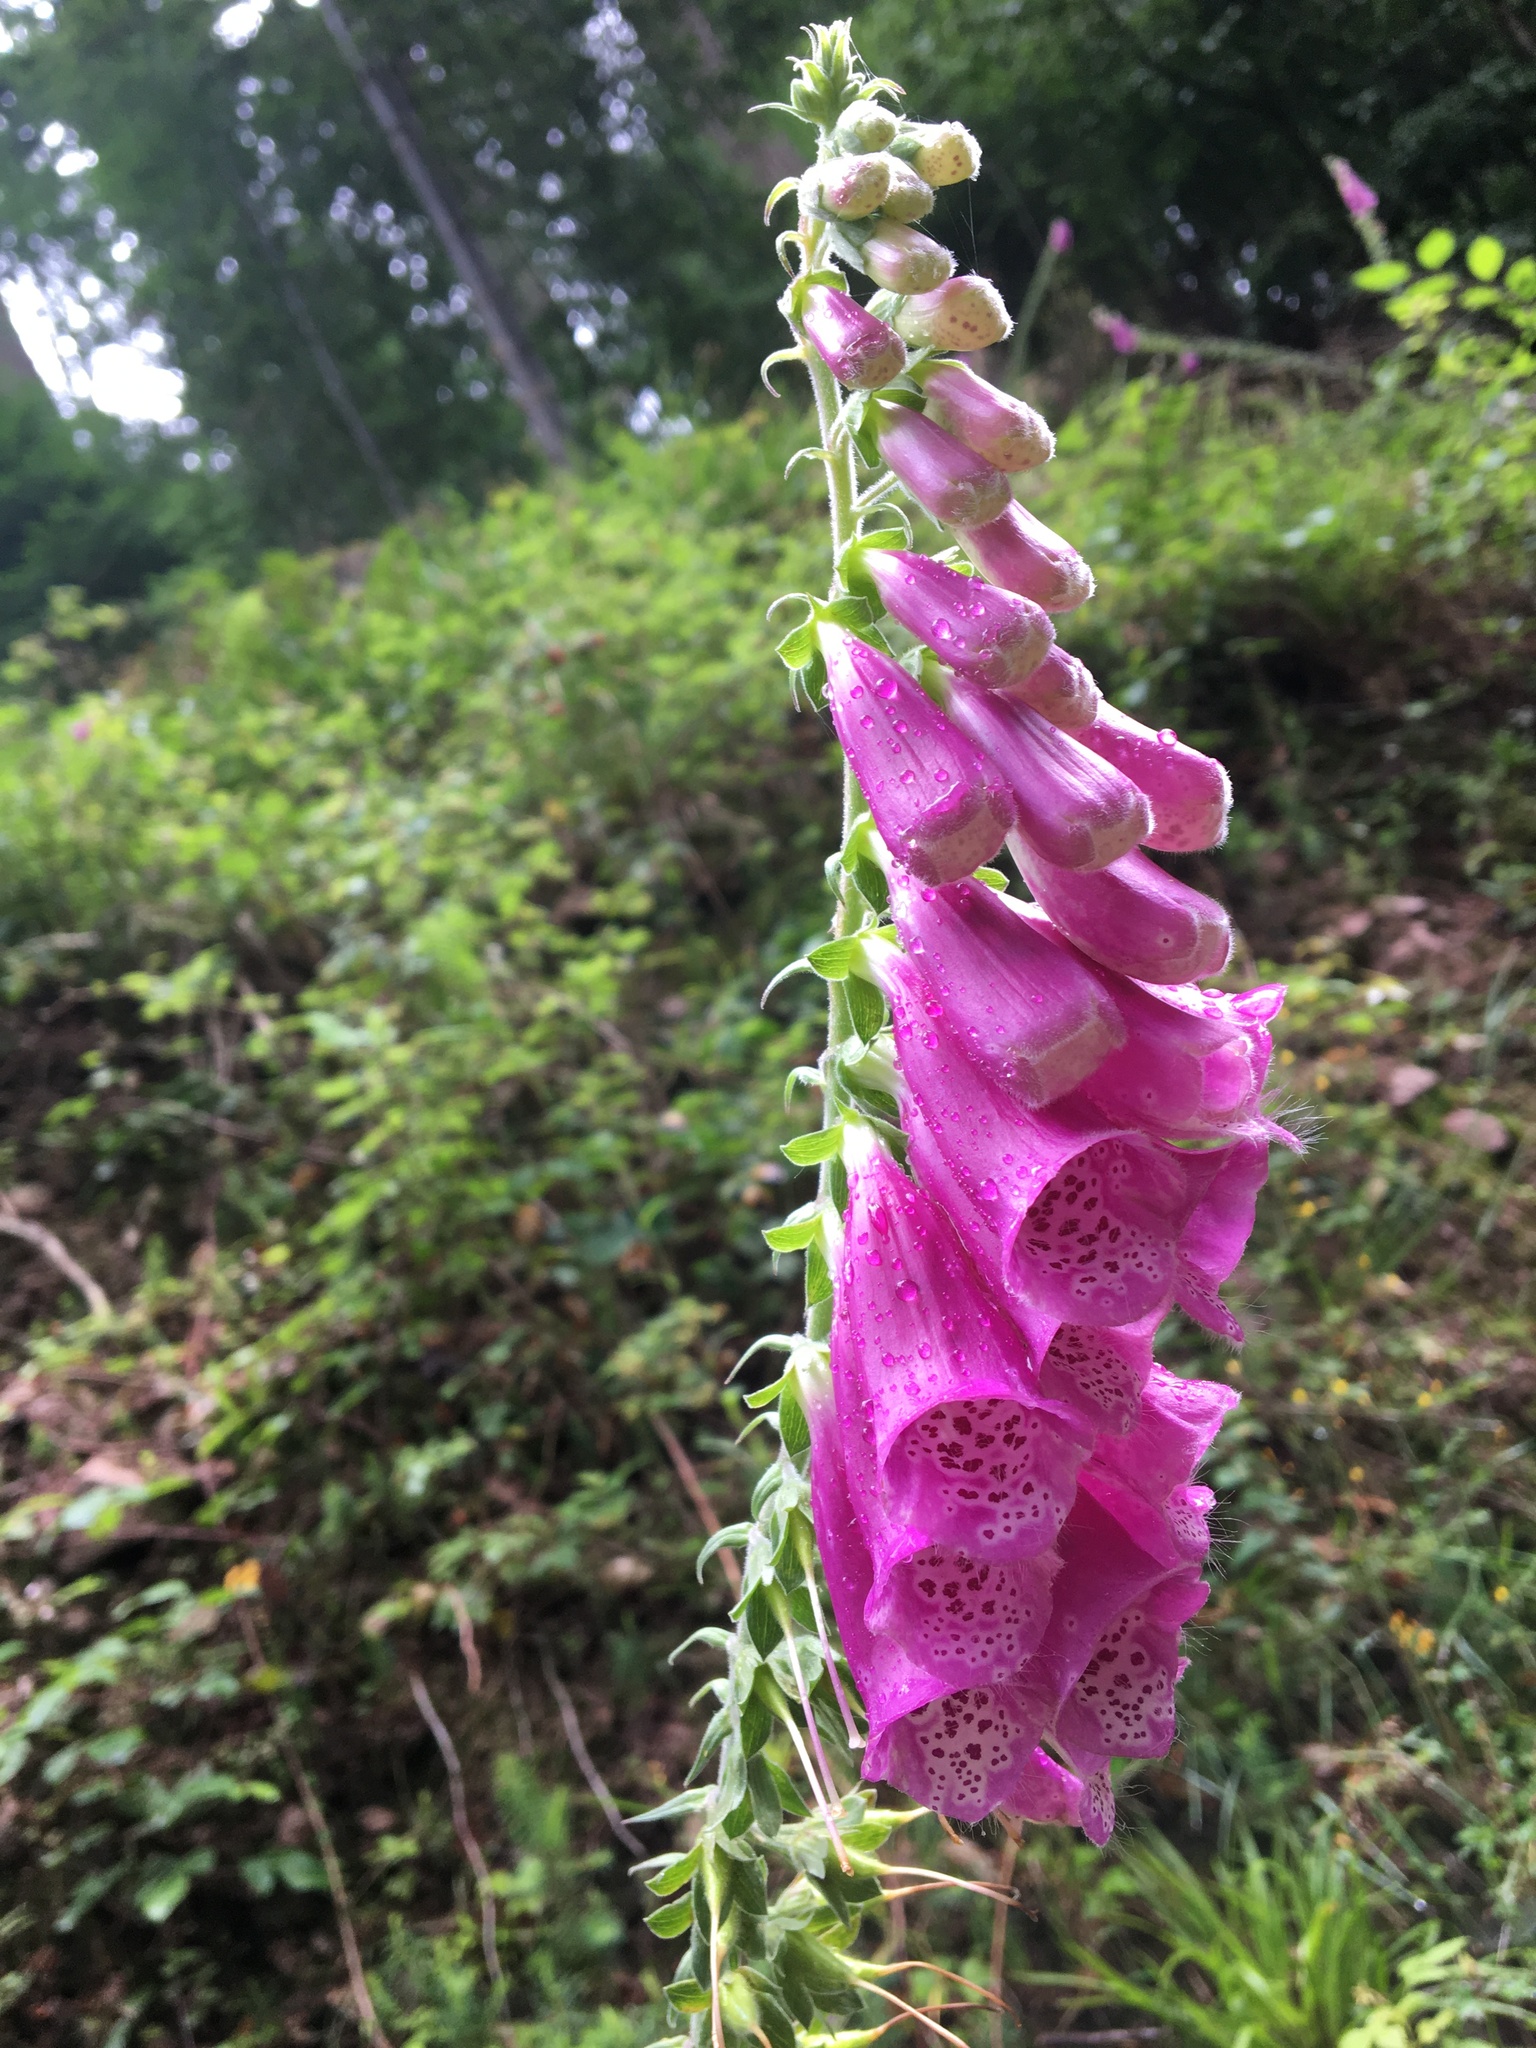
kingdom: Plantae
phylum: Tracheophyta
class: Magnoliopsida
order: Lamiales
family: Plantaginaceae
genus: Digitalis
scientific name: Digitalis purpurea
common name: Foxglove
